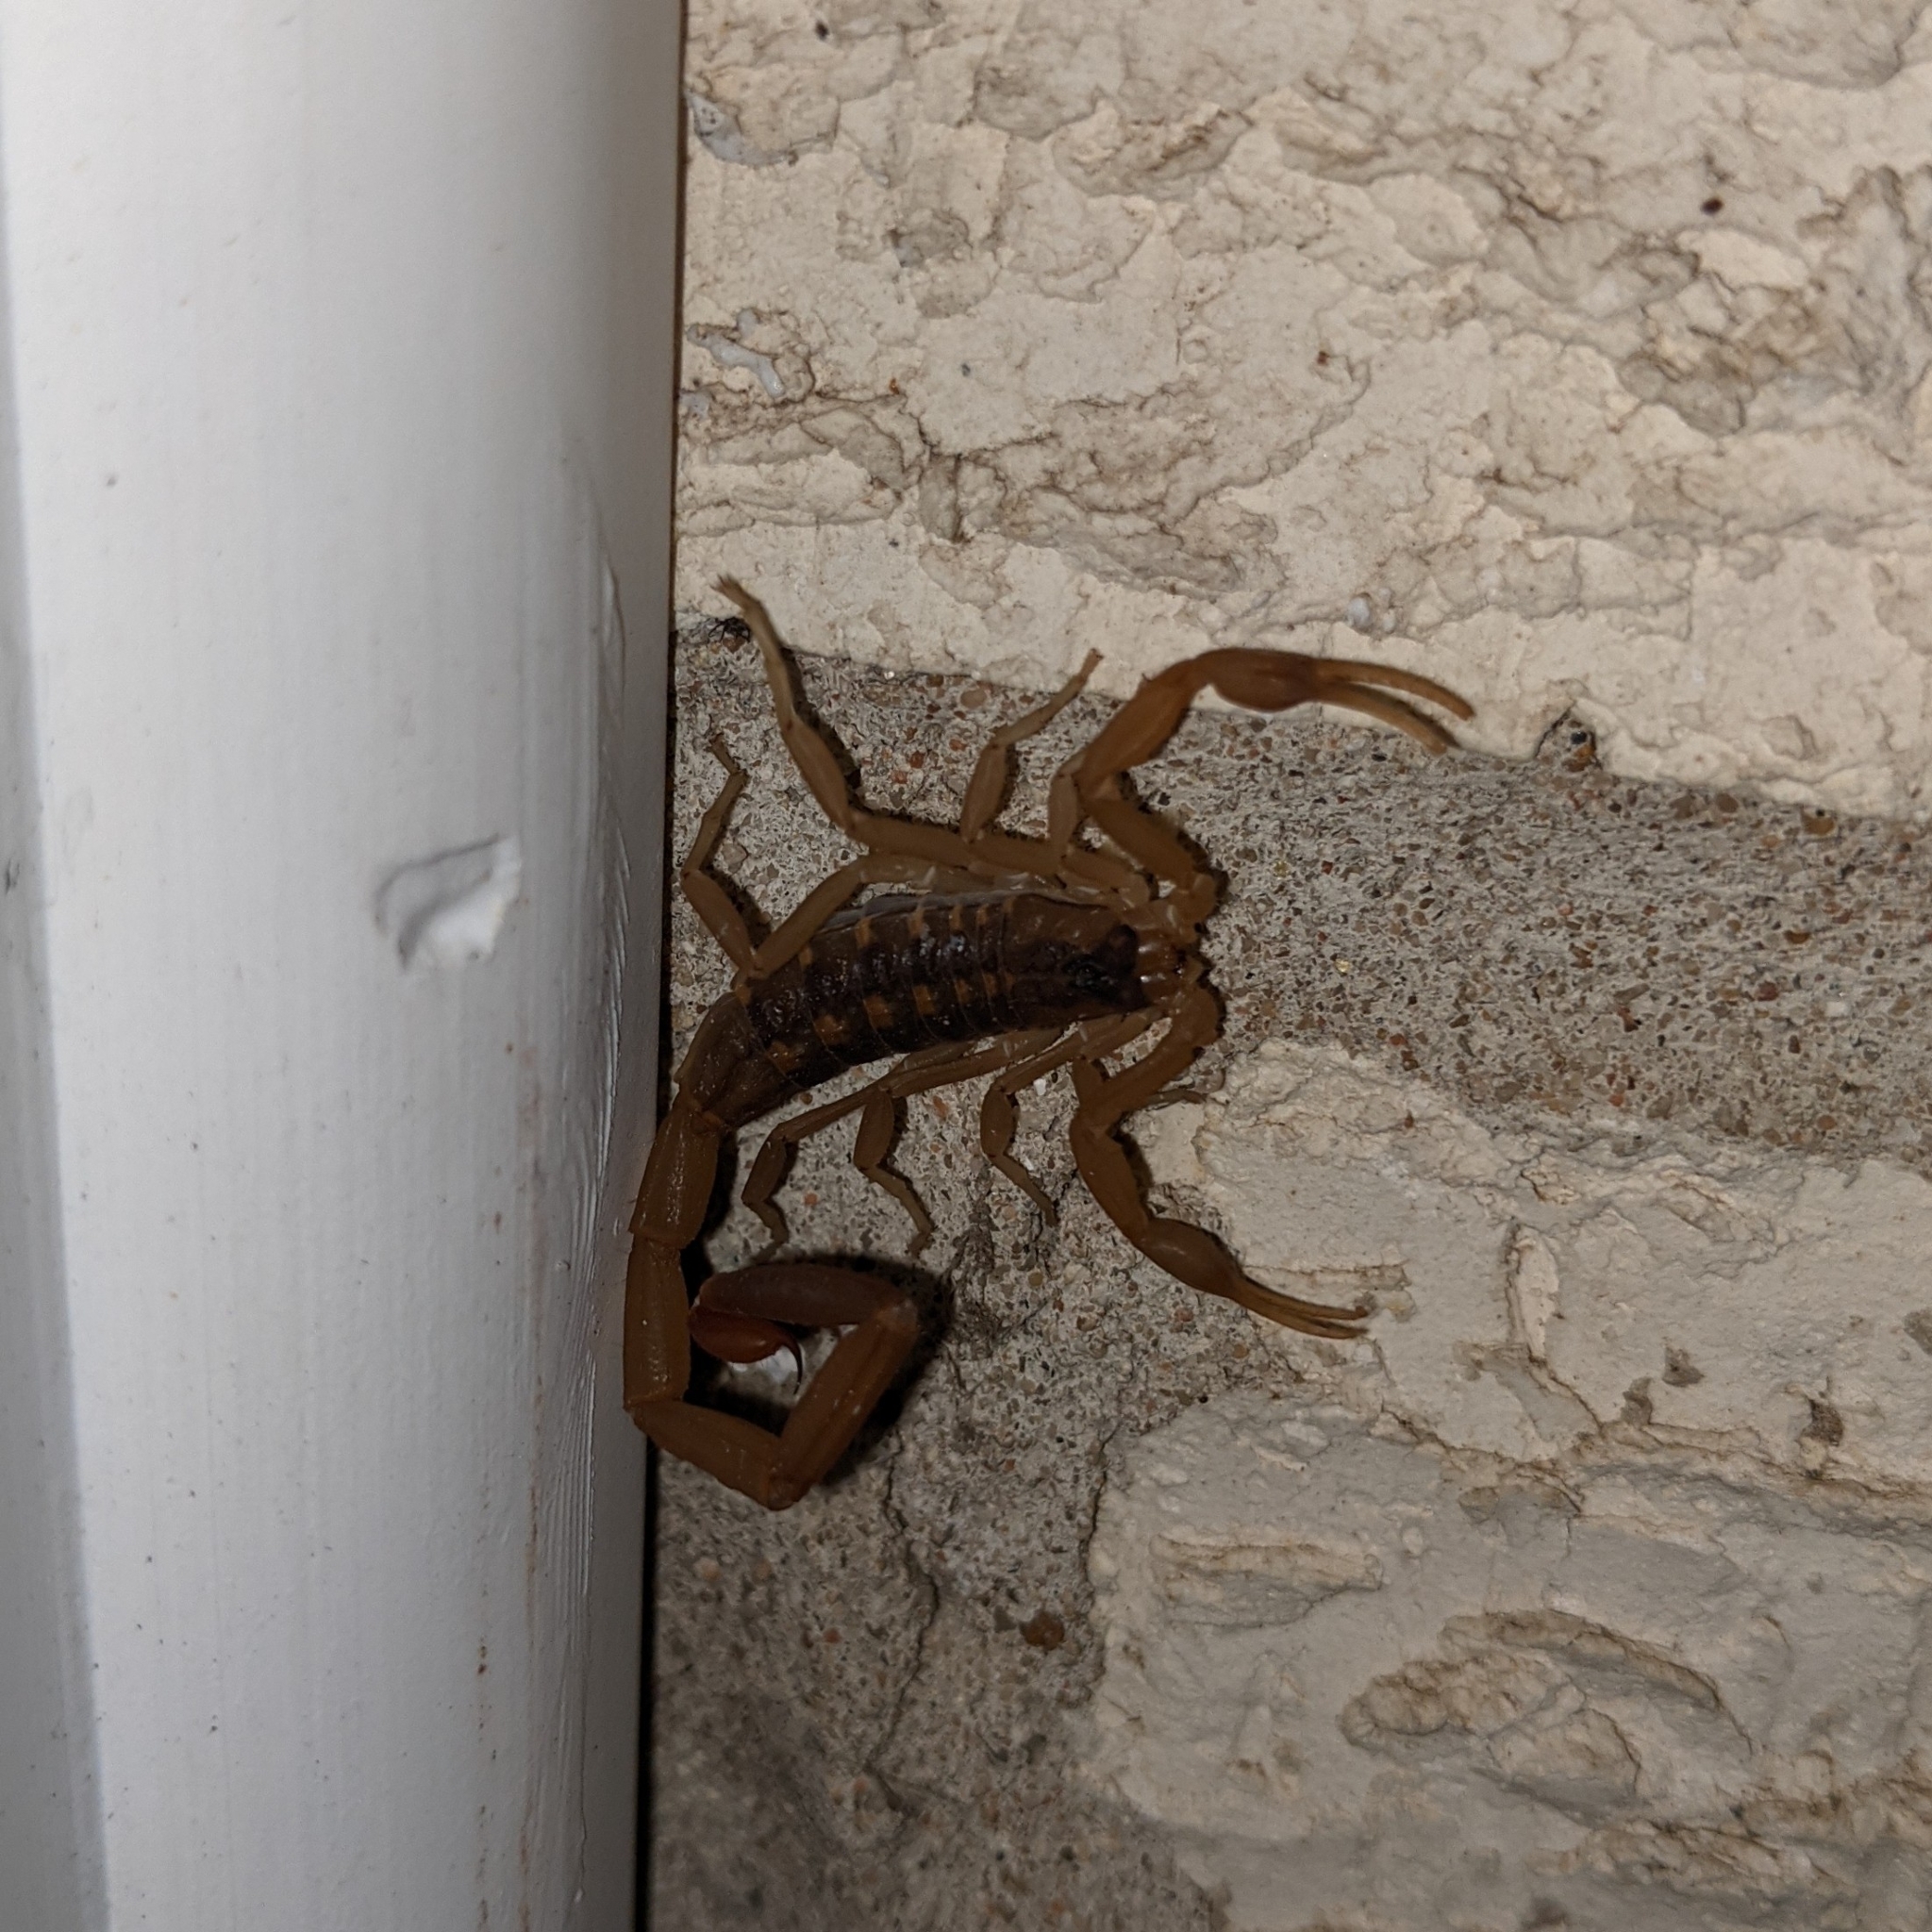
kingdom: Animalia
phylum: Arthropoda
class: Arachnida
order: Scorpiones
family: Buthidae
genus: Centruroides
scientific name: Centruroides vittatus
